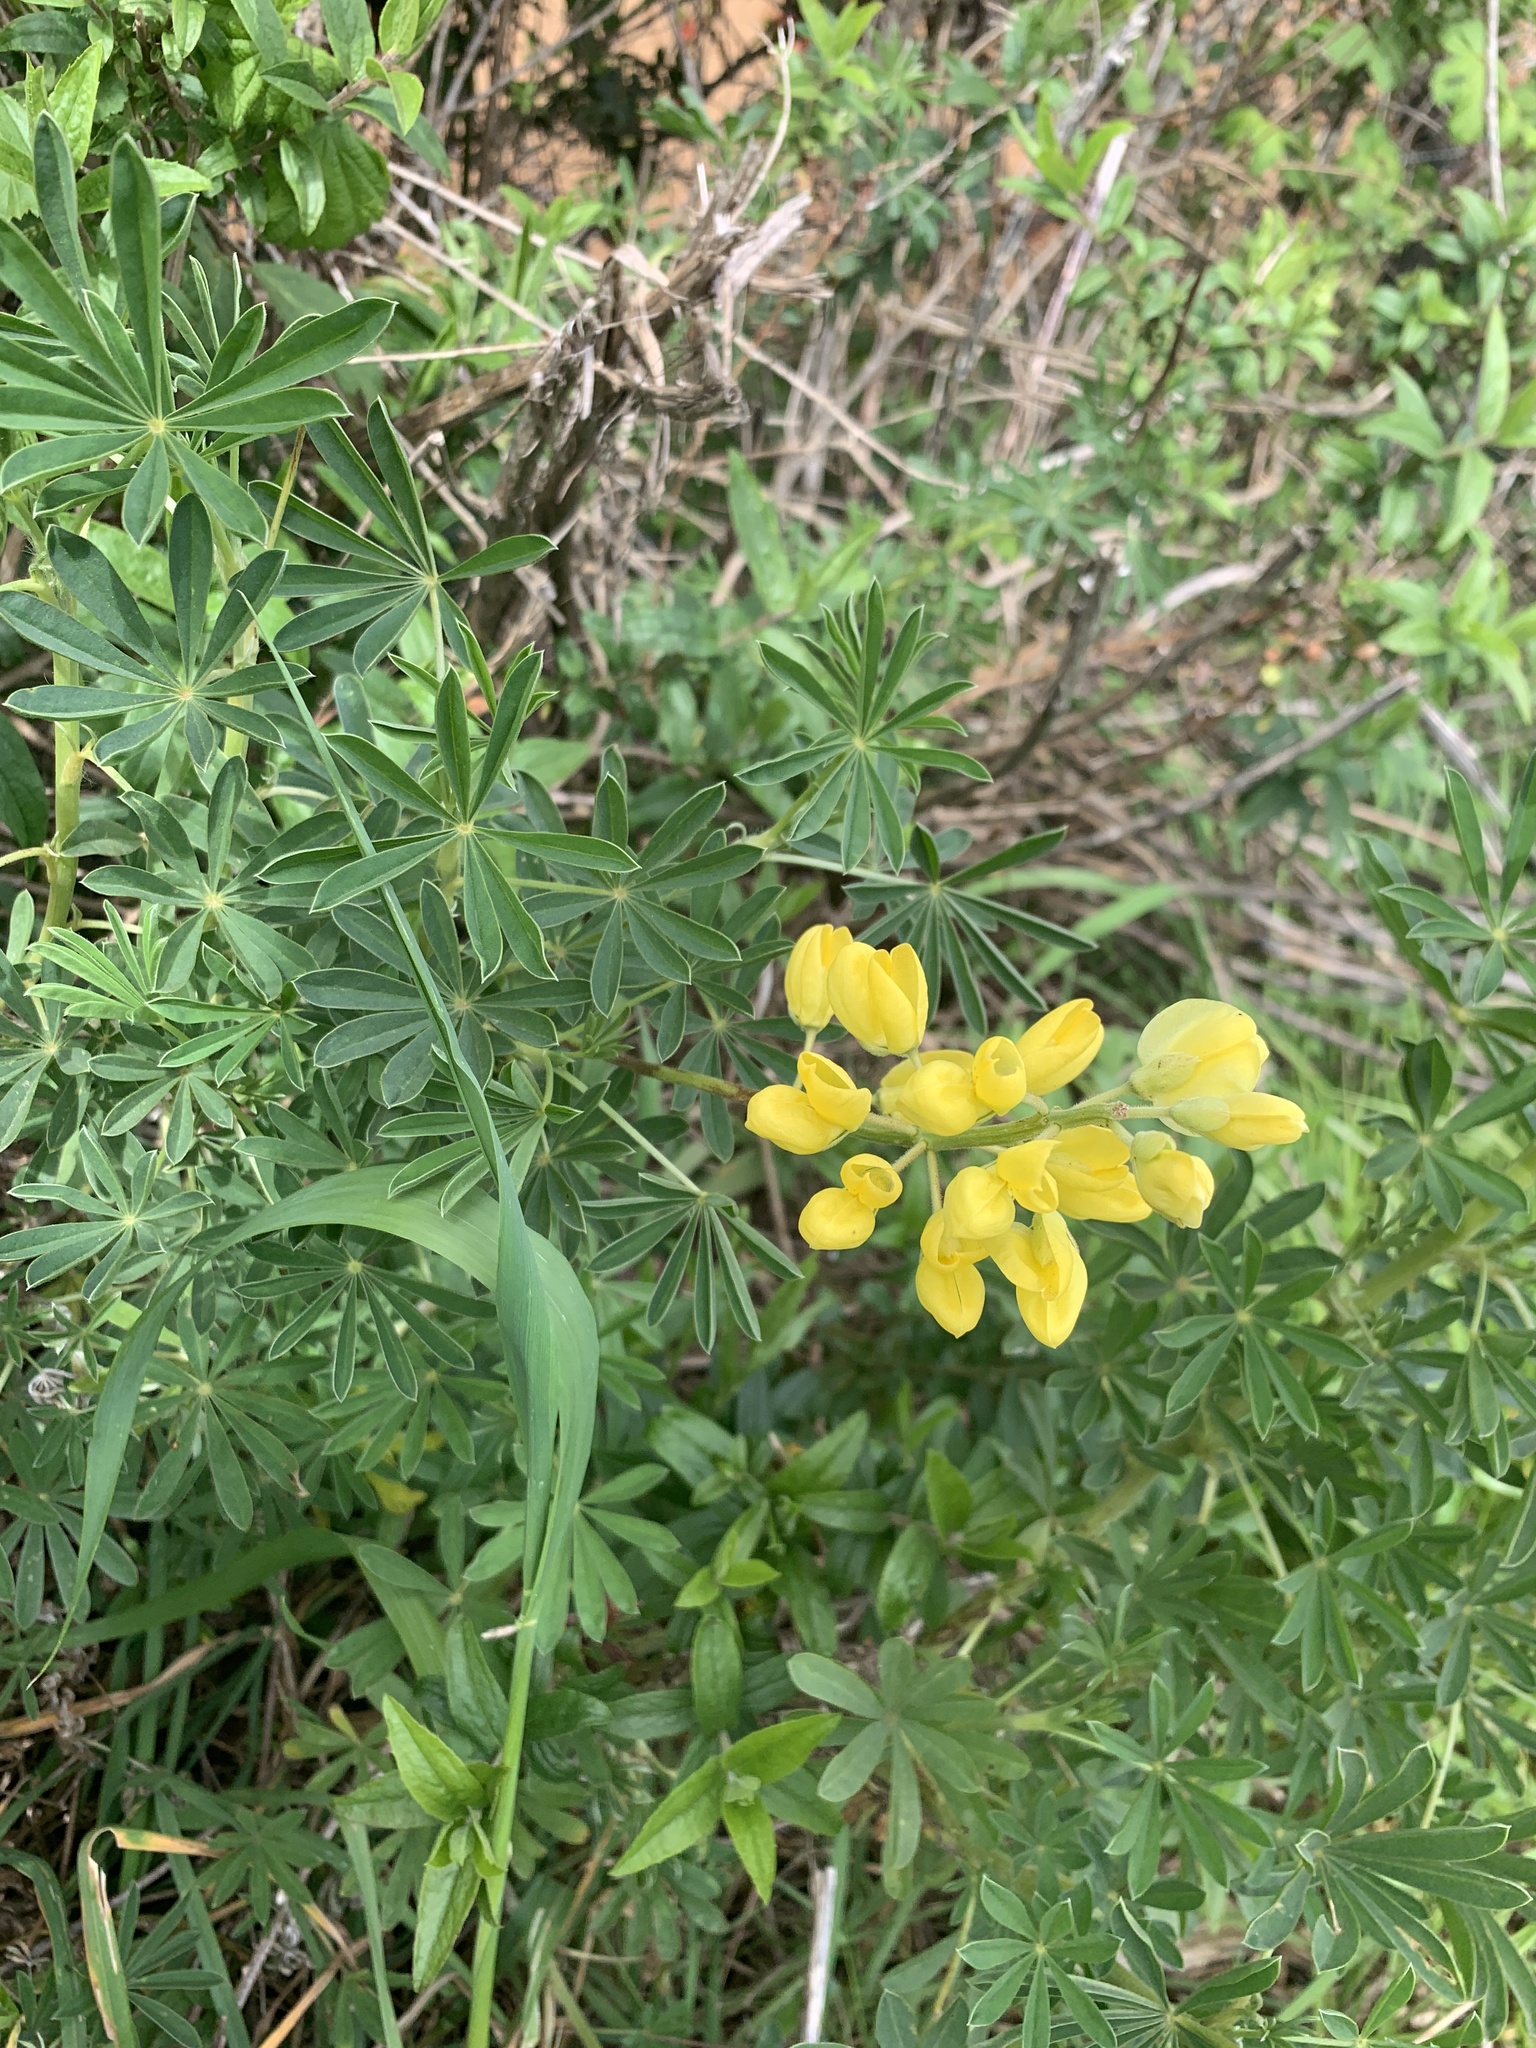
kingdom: Plantae
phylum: Tracheophyta
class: Magnoliopsida
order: Fabales
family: Fabaceae
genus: Lupinus
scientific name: Lupinus arboreus
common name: Yellow bush lupine
